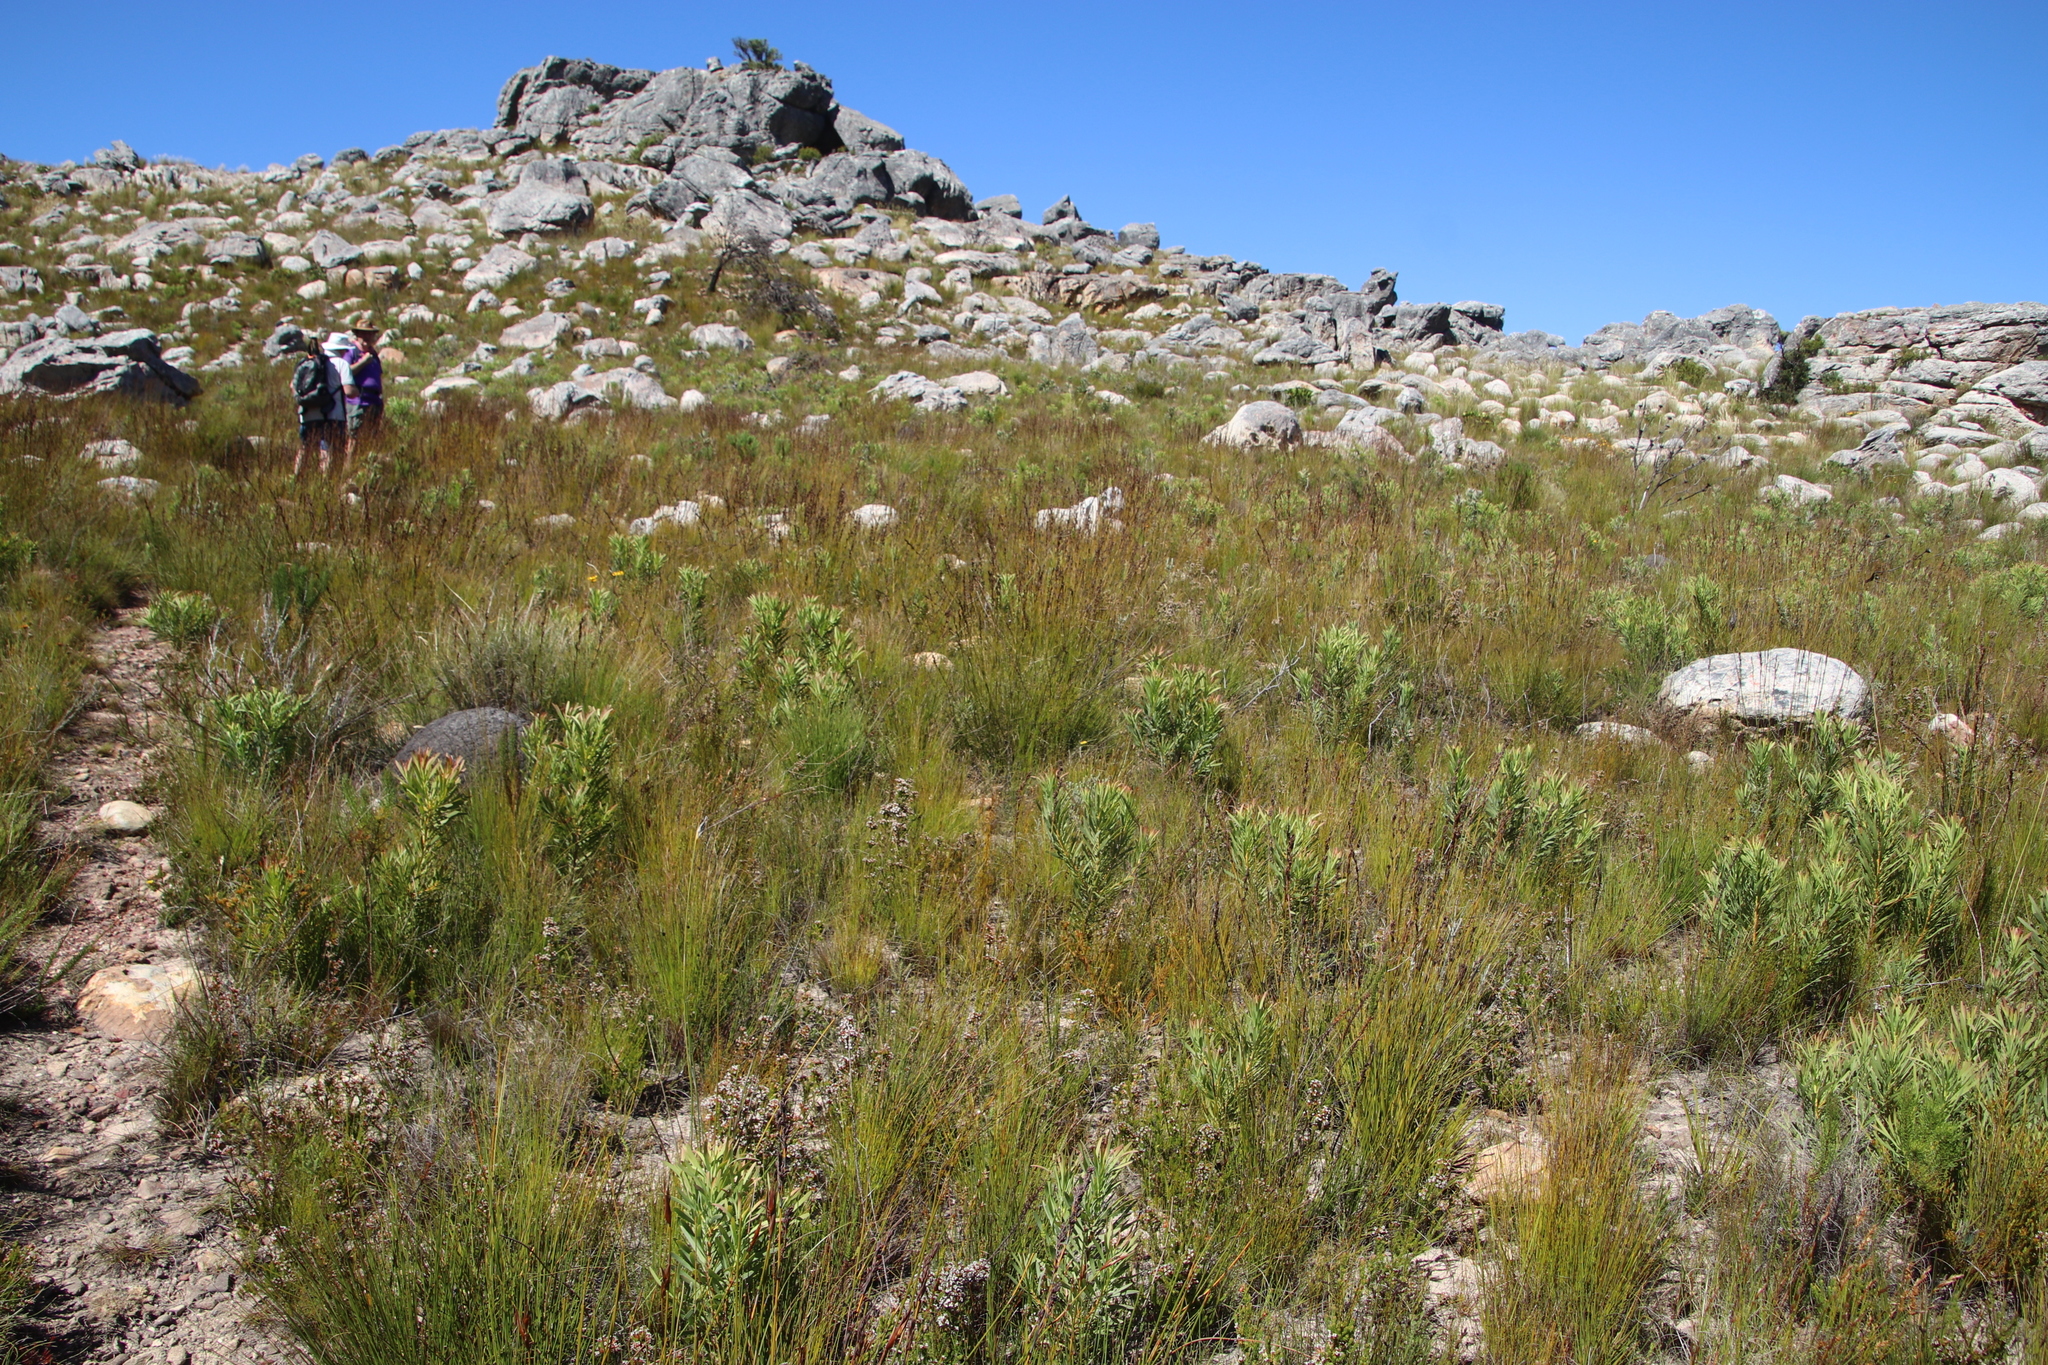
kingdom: Plantae
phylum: Tracheophyta
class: Magnoliopsida
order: Proteales
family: Proteaceae
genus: Protea
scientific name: Protea repens
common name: Sugarbush
